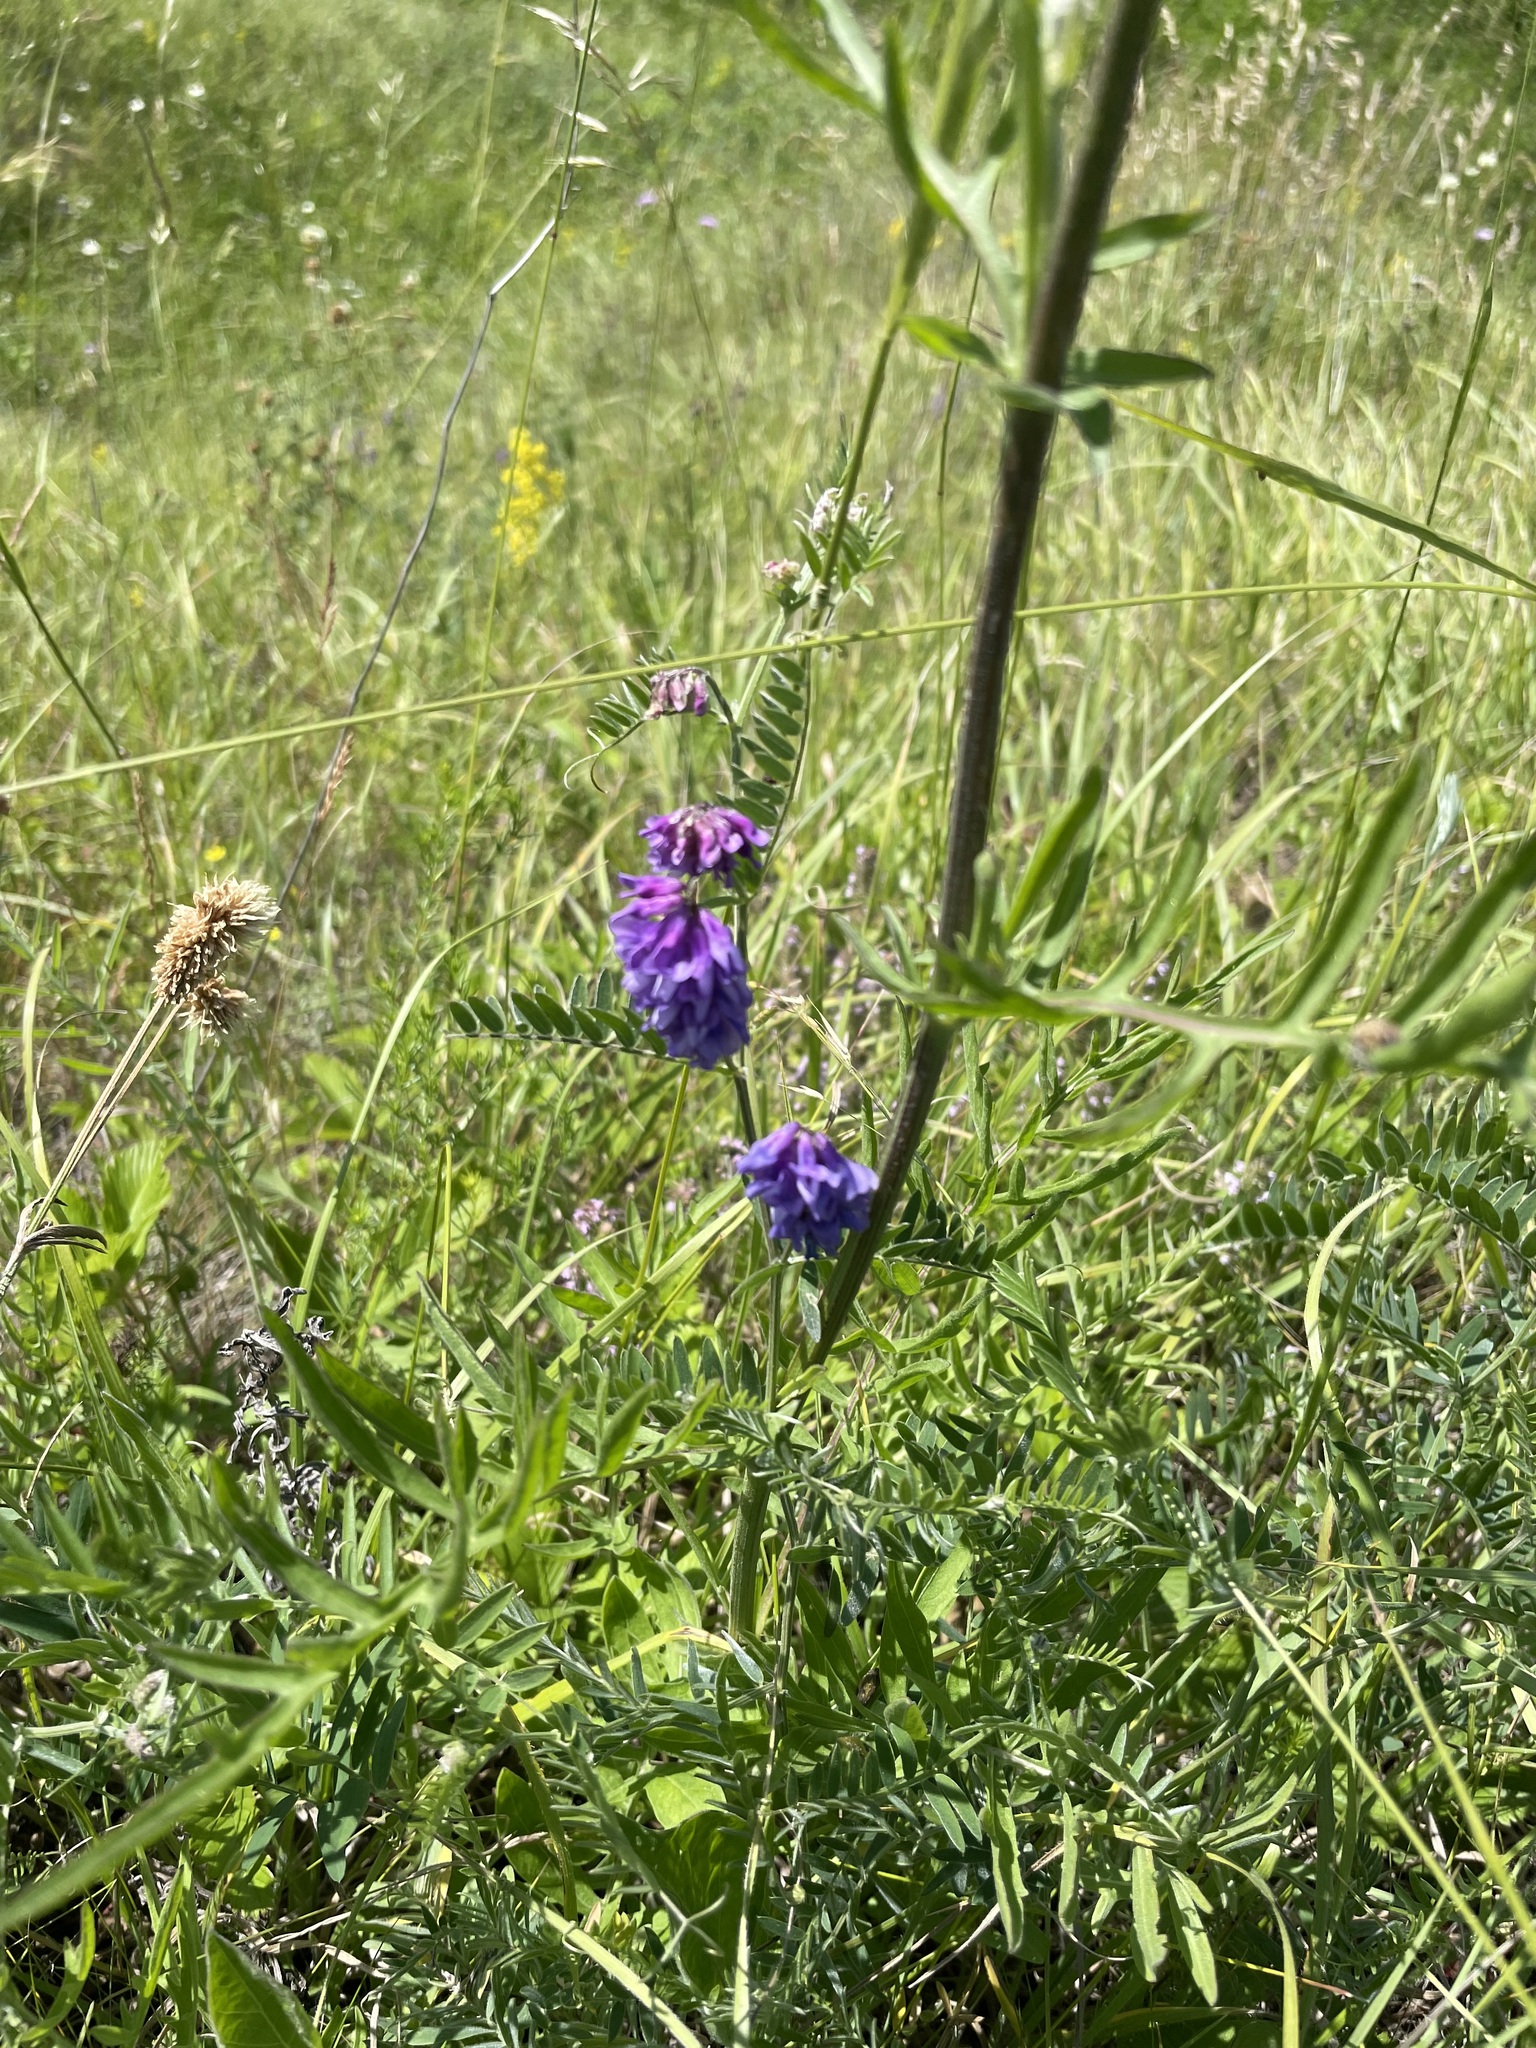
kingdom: Plantae
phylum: Tracheophyta
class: Magnoliopsida
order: Fabales
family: Fabaceae
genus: Vicia
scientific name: Vicia cracca
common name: Bird vetch
